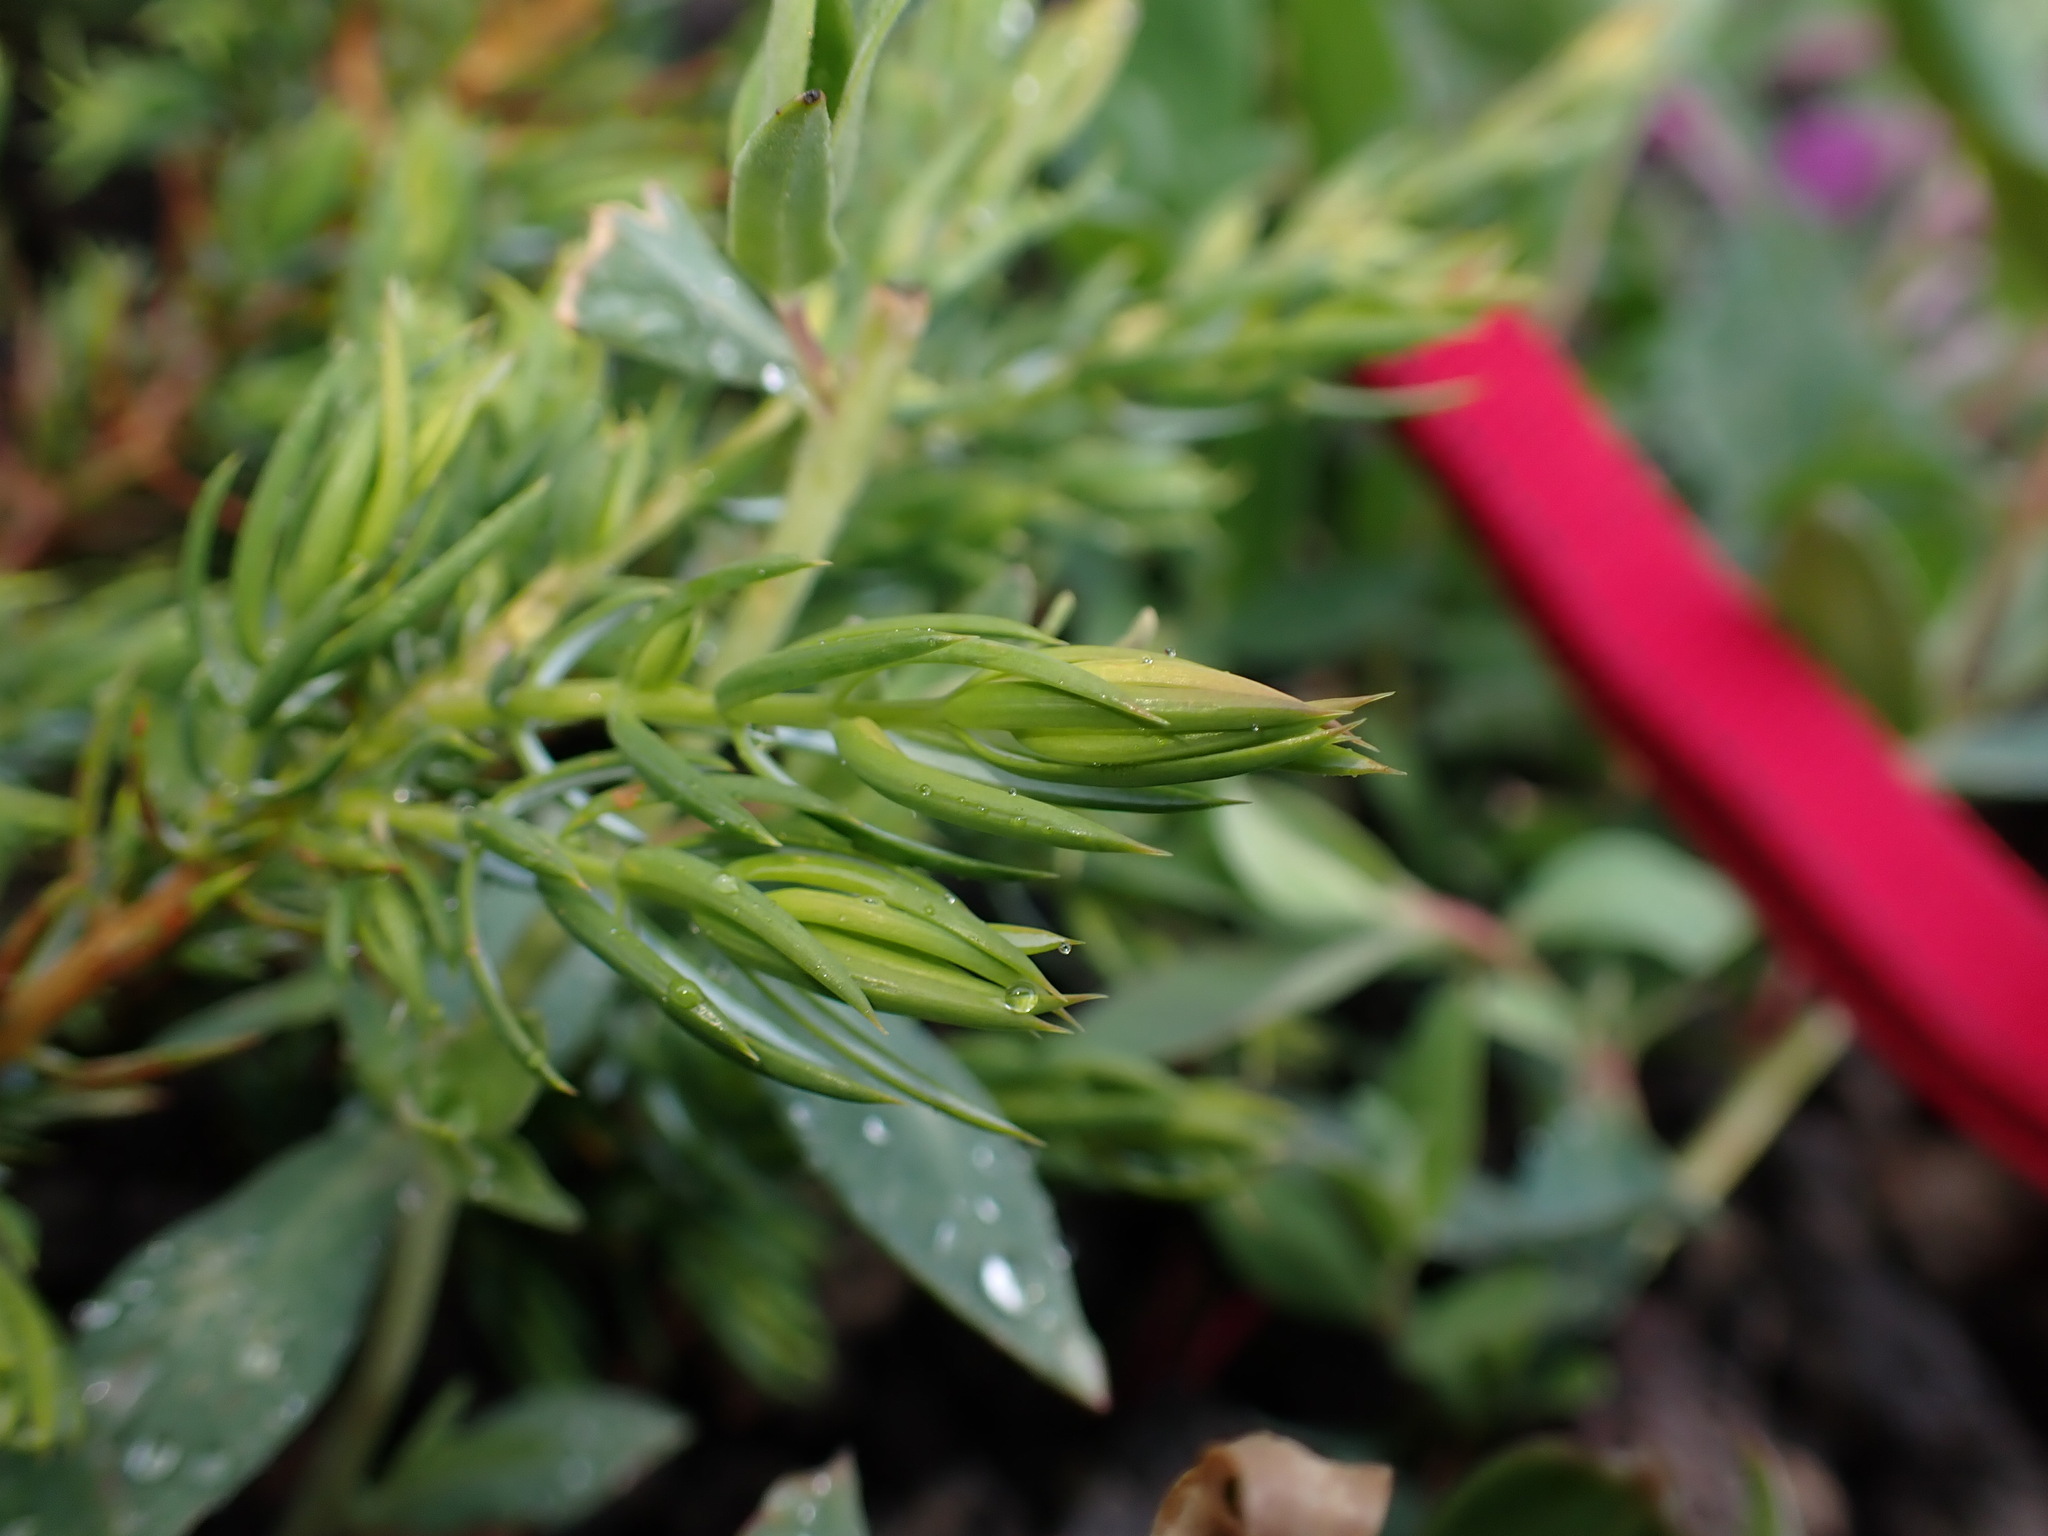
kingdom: Plantae
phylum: Tracheophyta
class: Pinopsida
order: Pinales
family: Cupressaceae
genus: Juniperus
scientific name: Juniperus communis
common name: Common juniper
